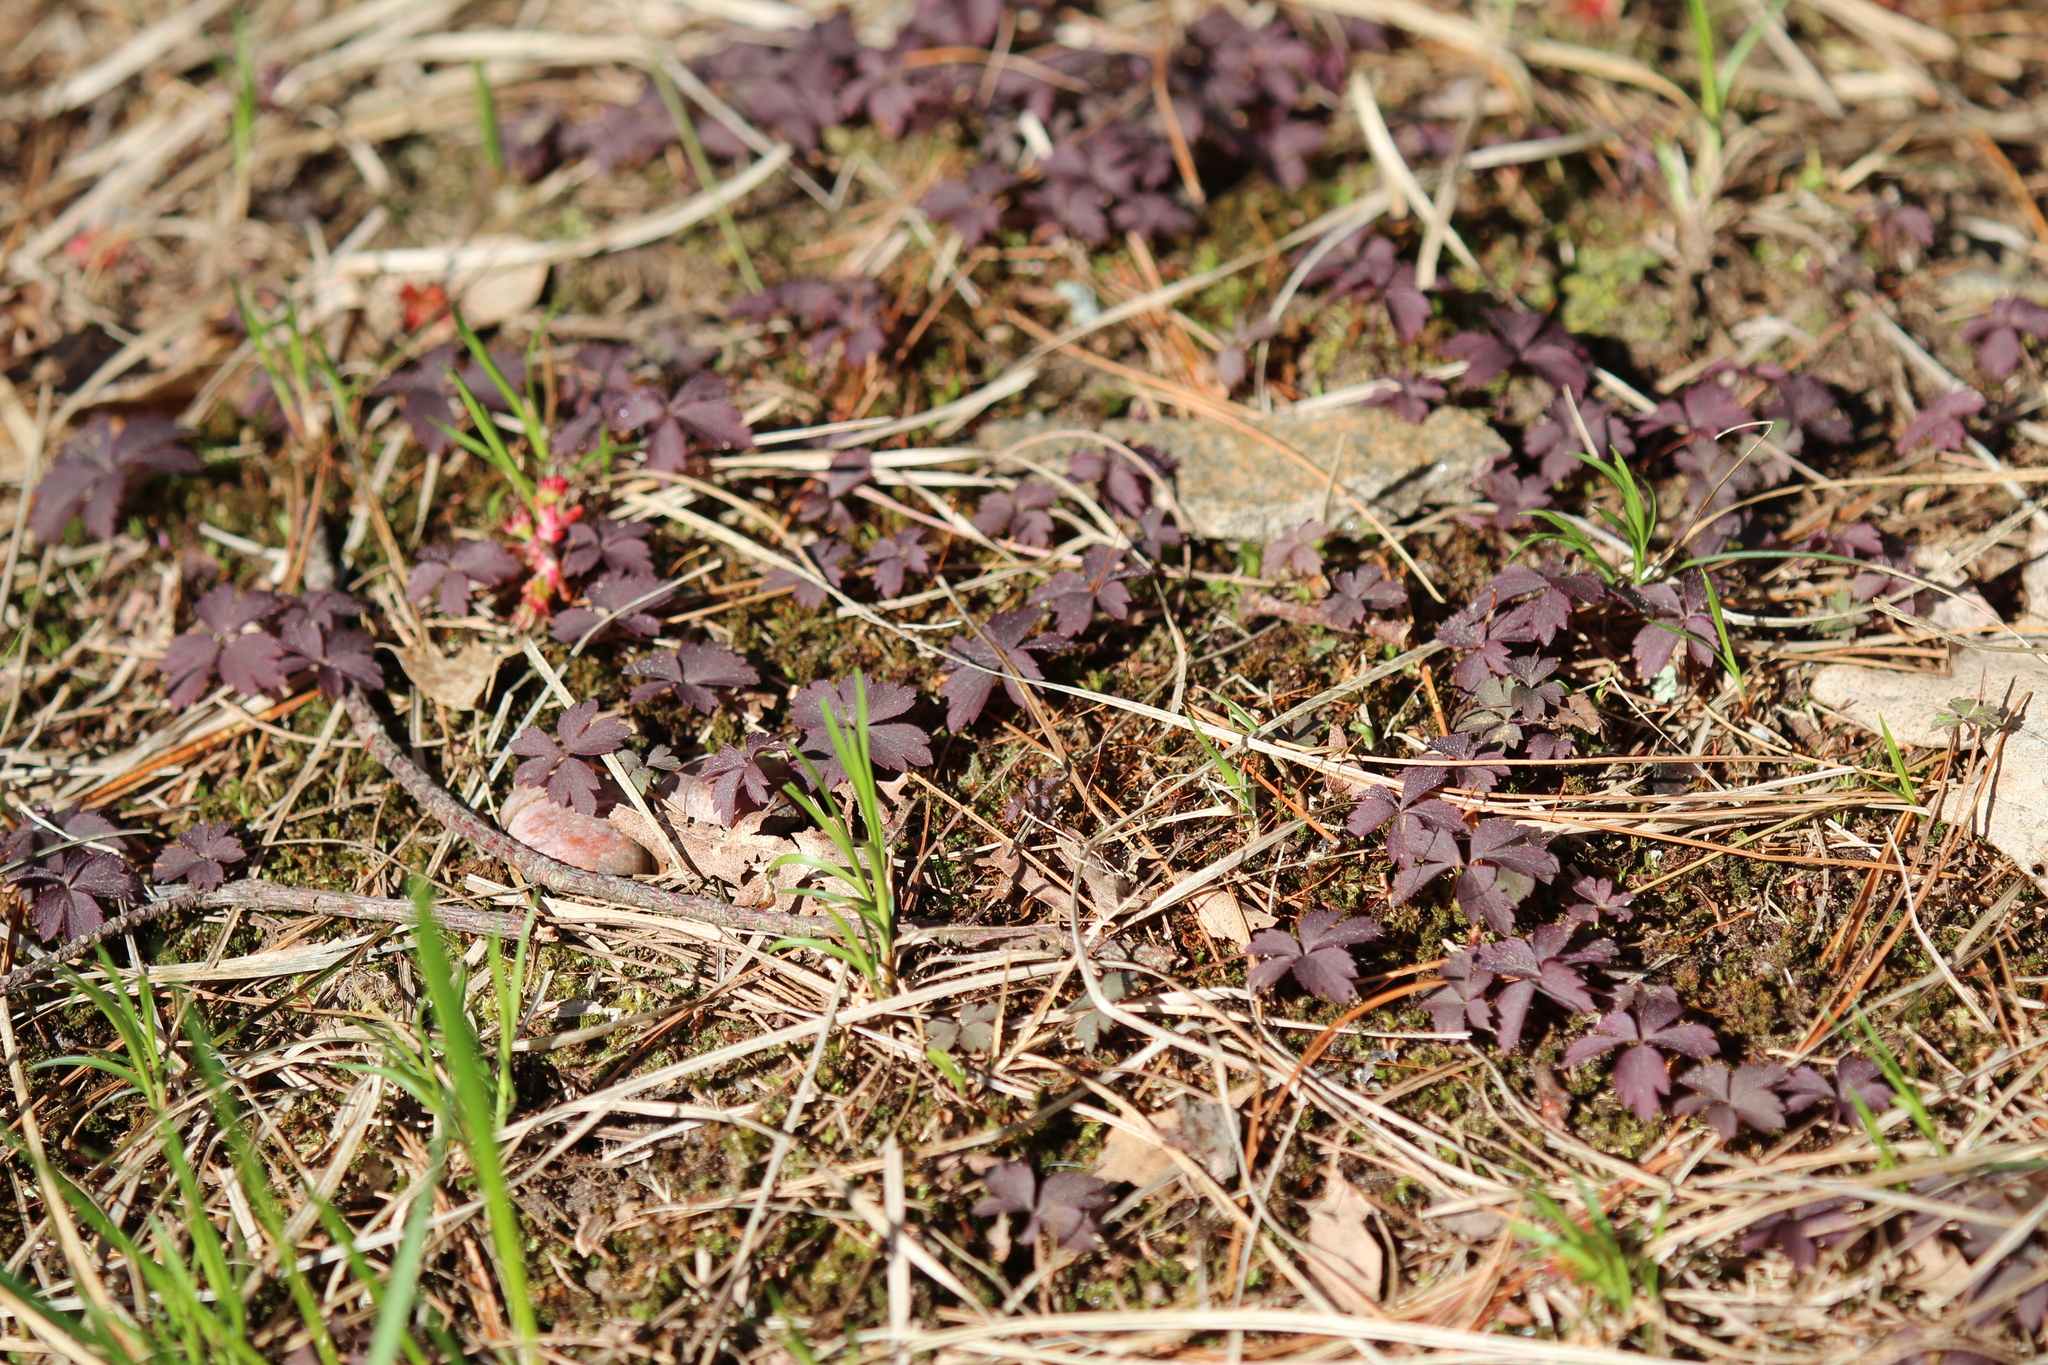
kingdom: Plantae
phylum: Tracheophyta
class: Magnoliopsida
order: Ranunculales
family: Ranunculaceae
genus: Anemone
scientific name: Anemone quinquefolia
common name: Wood anemone
